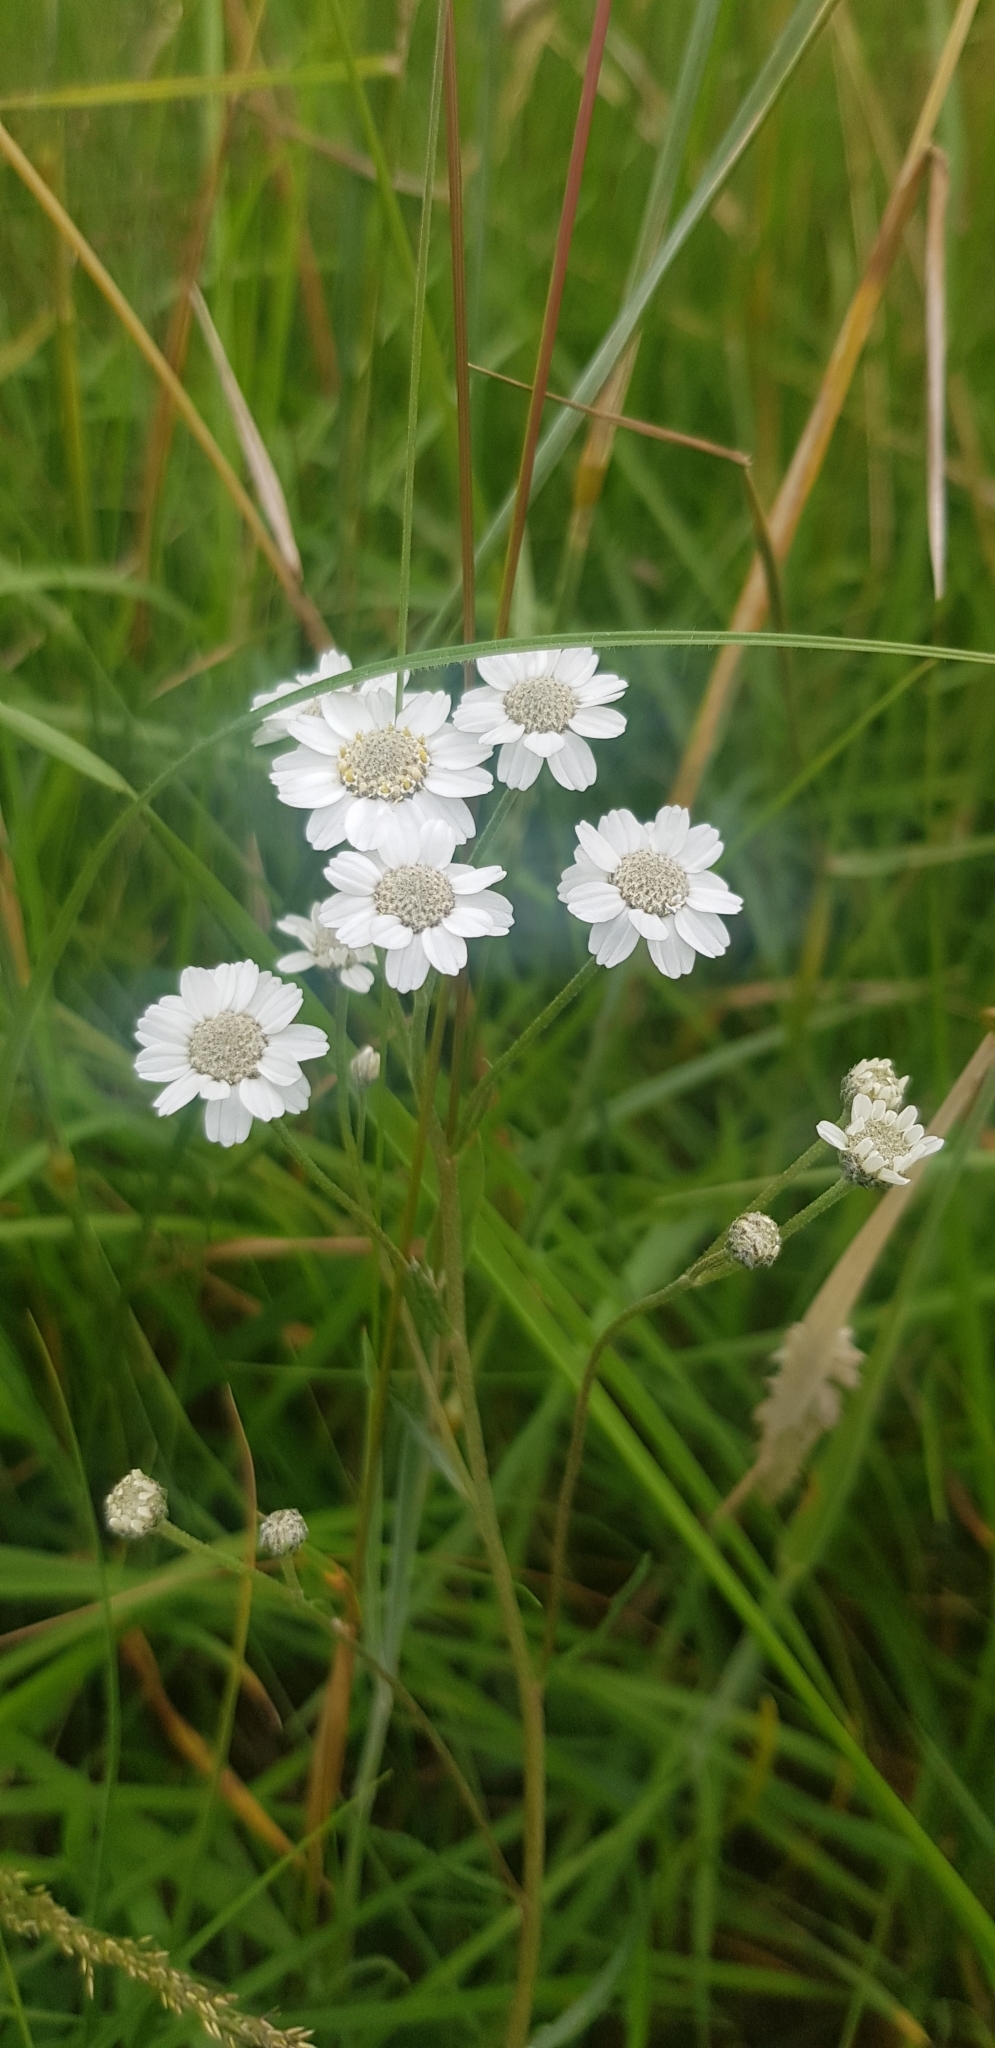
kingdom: Plantae
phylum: Tracheophyta
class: Magnoliopsida
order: Asterales
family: Asteraceae
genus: Achillea
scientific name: Achillea ptarmica
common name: Sneezeweed
